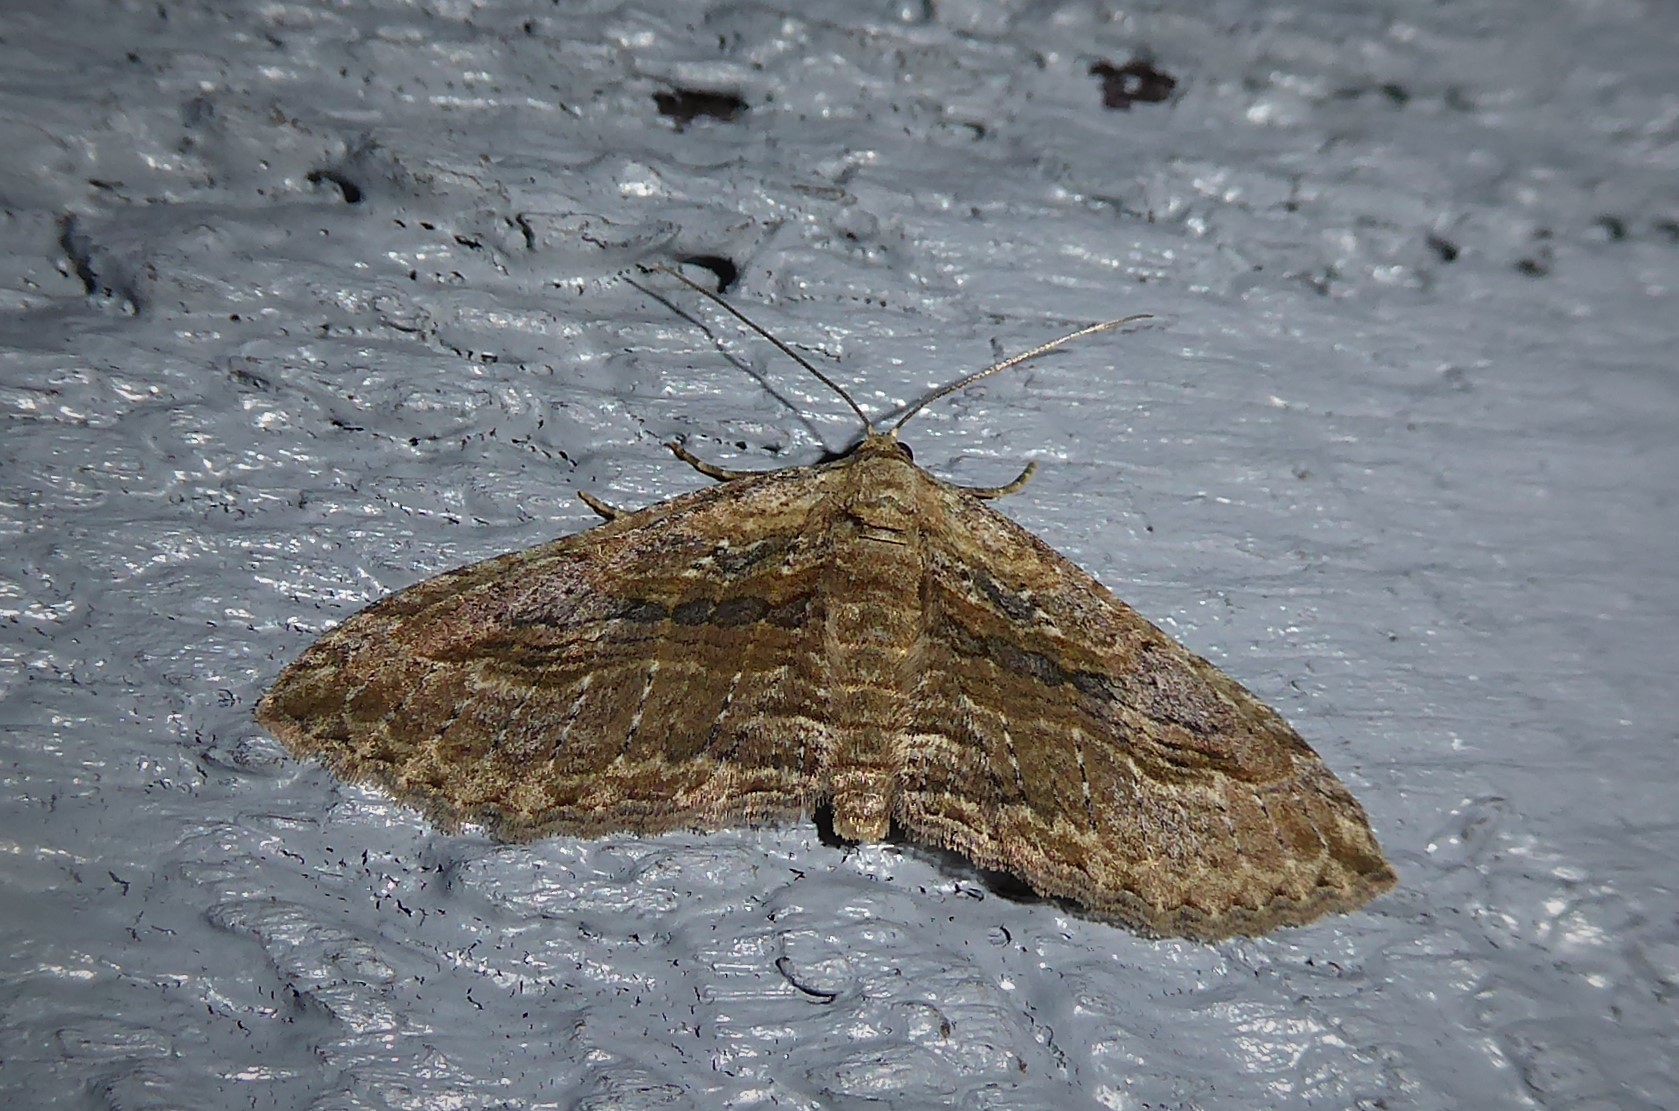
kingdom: Animalia
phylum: Arthropoda
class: Insecta
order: Lepidoptera
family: Geometridae
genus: Austrocidaria
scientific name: Austrocidaria gobiata
